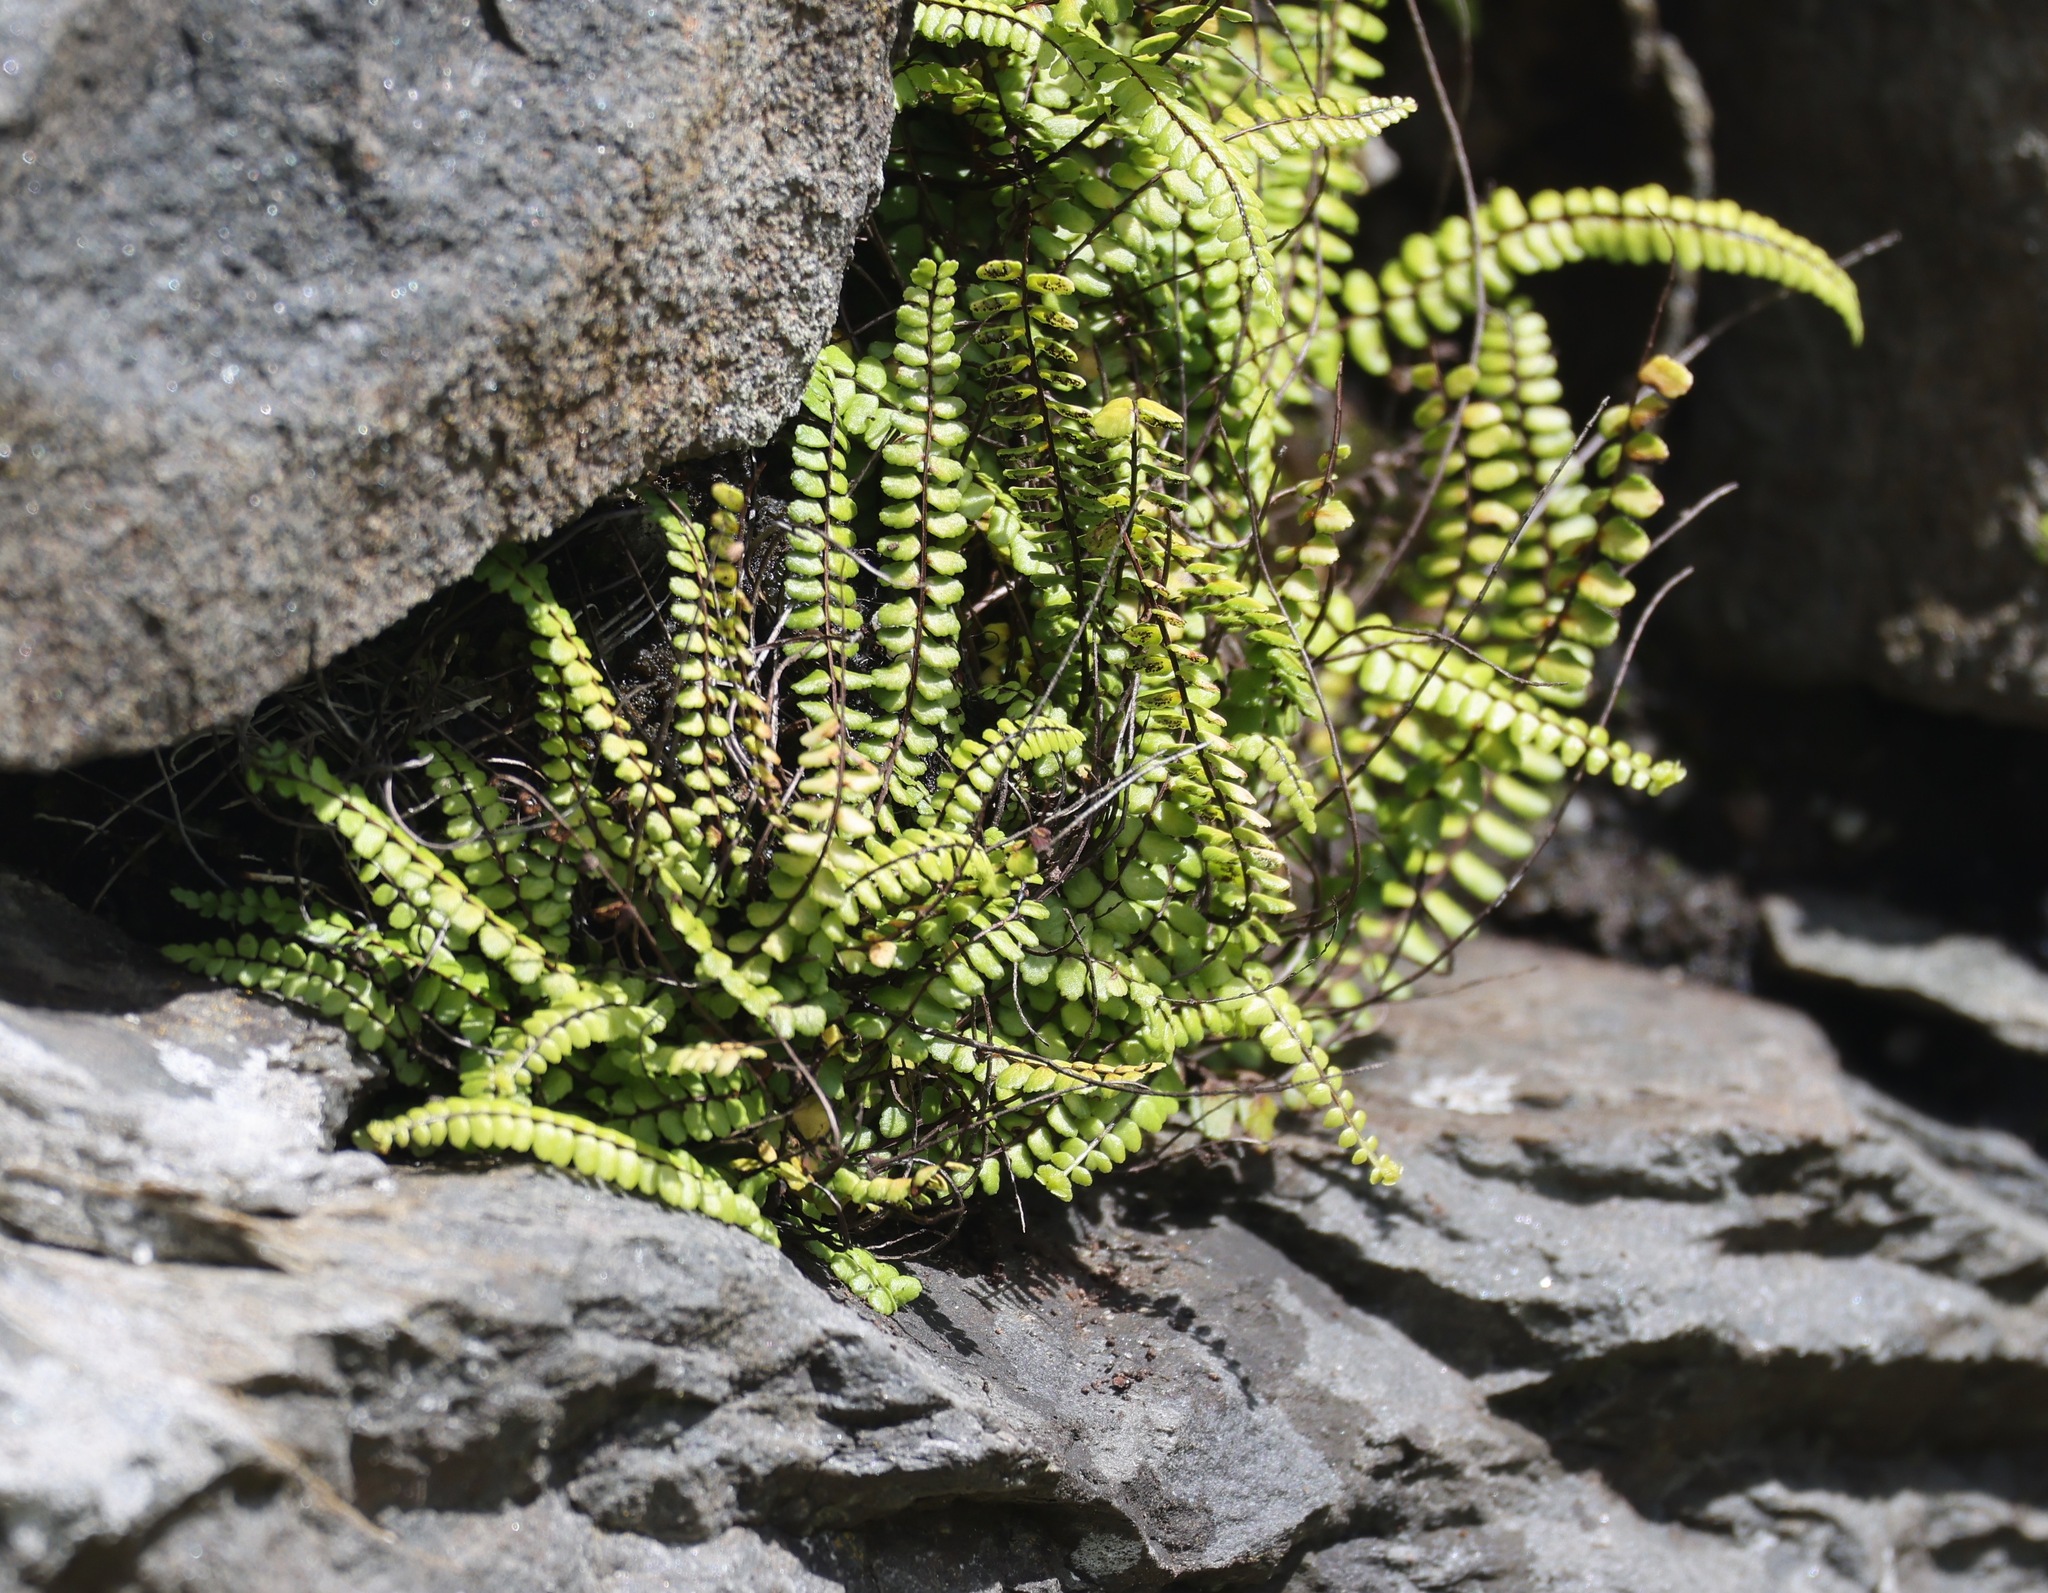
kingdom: Plantae
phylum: Tracheophyta
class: Polypodiopsida
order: Polypodiales
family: Aspleniaceae
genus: Asplenium
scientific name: Asplenium trichomanes
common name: Maidenhair spleenwort
